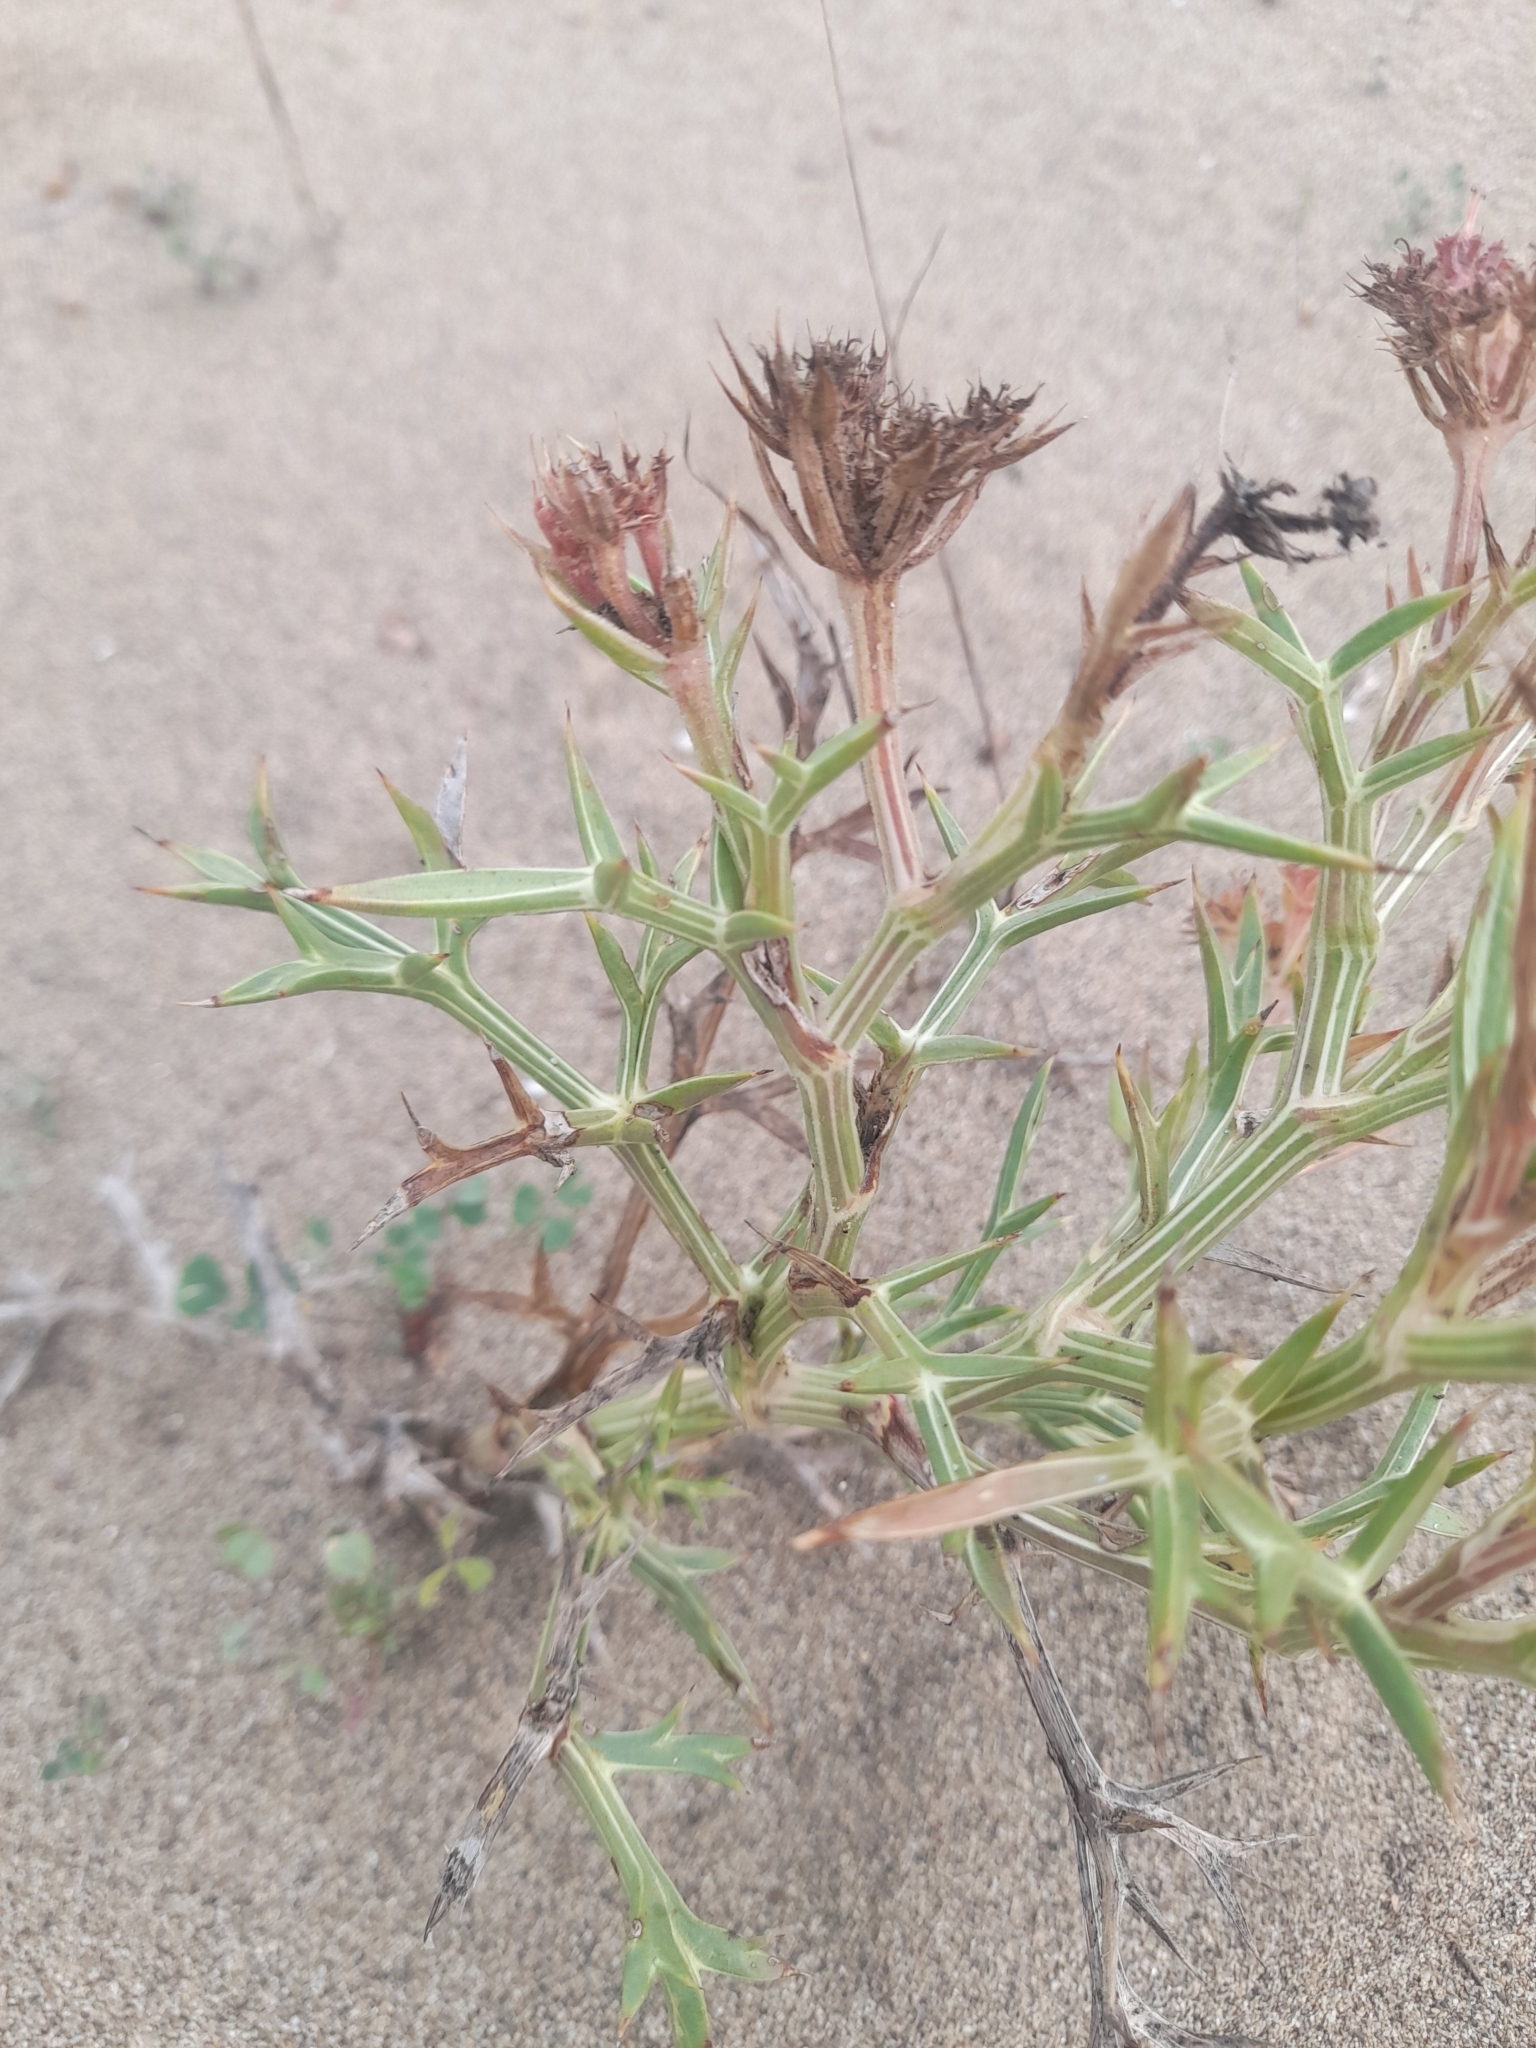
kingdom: Plantae
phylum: Tracheophyta
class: Magnoliopsida
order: Apiales
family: Apiaceae
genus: Echinophora
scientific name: Echinophora spinosa
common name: Prickly samphire
